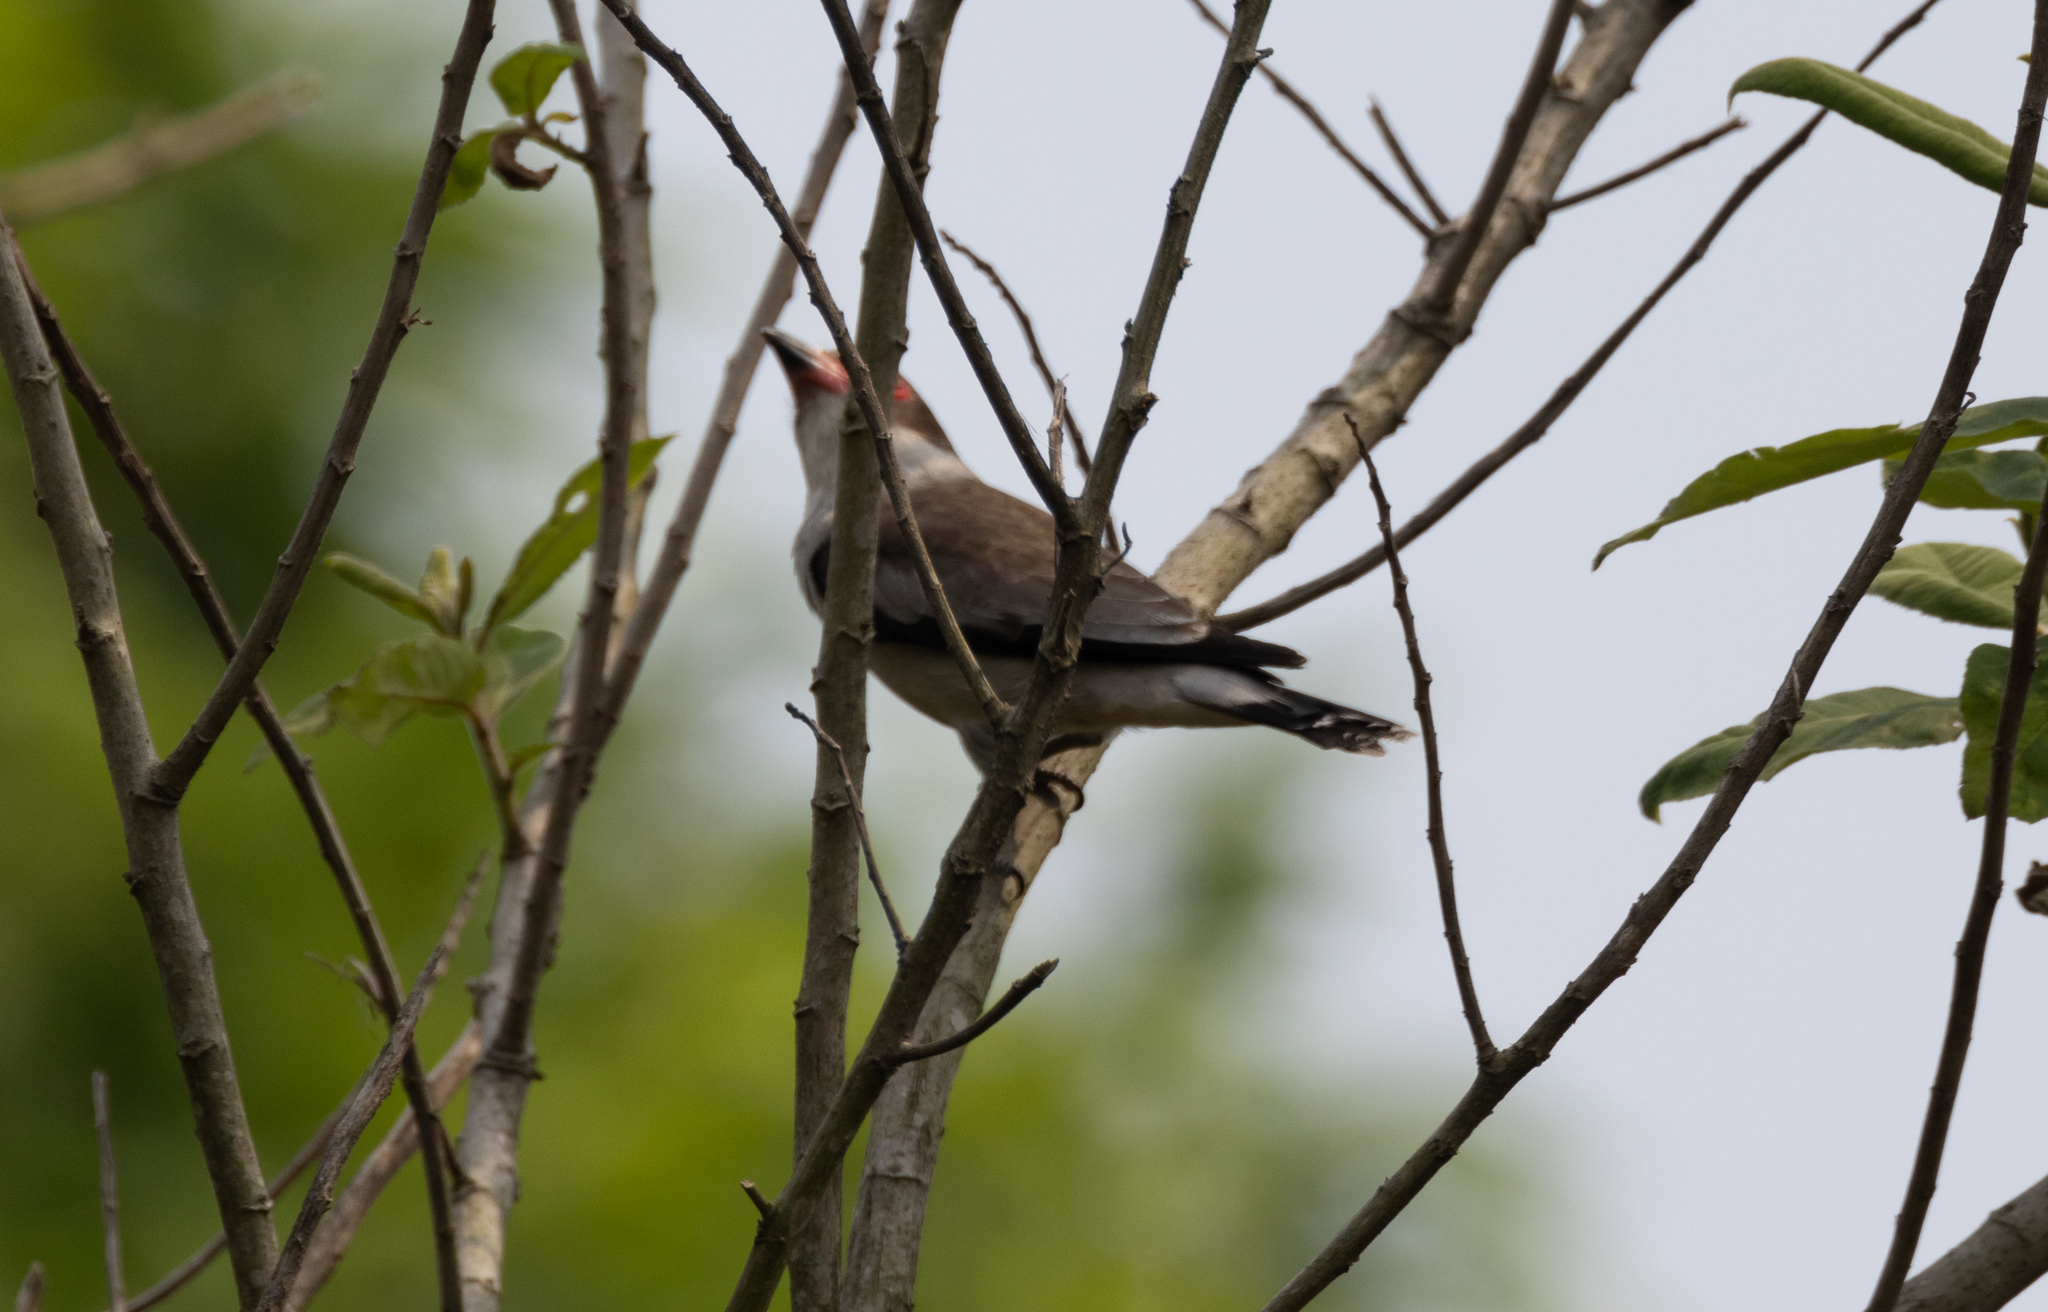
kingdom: Animalia
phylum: Chordata
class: Aves
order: Passeriformes
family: Cotingidae
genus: Tityra
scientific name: Tityra semifasciata
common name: Masked tityra
